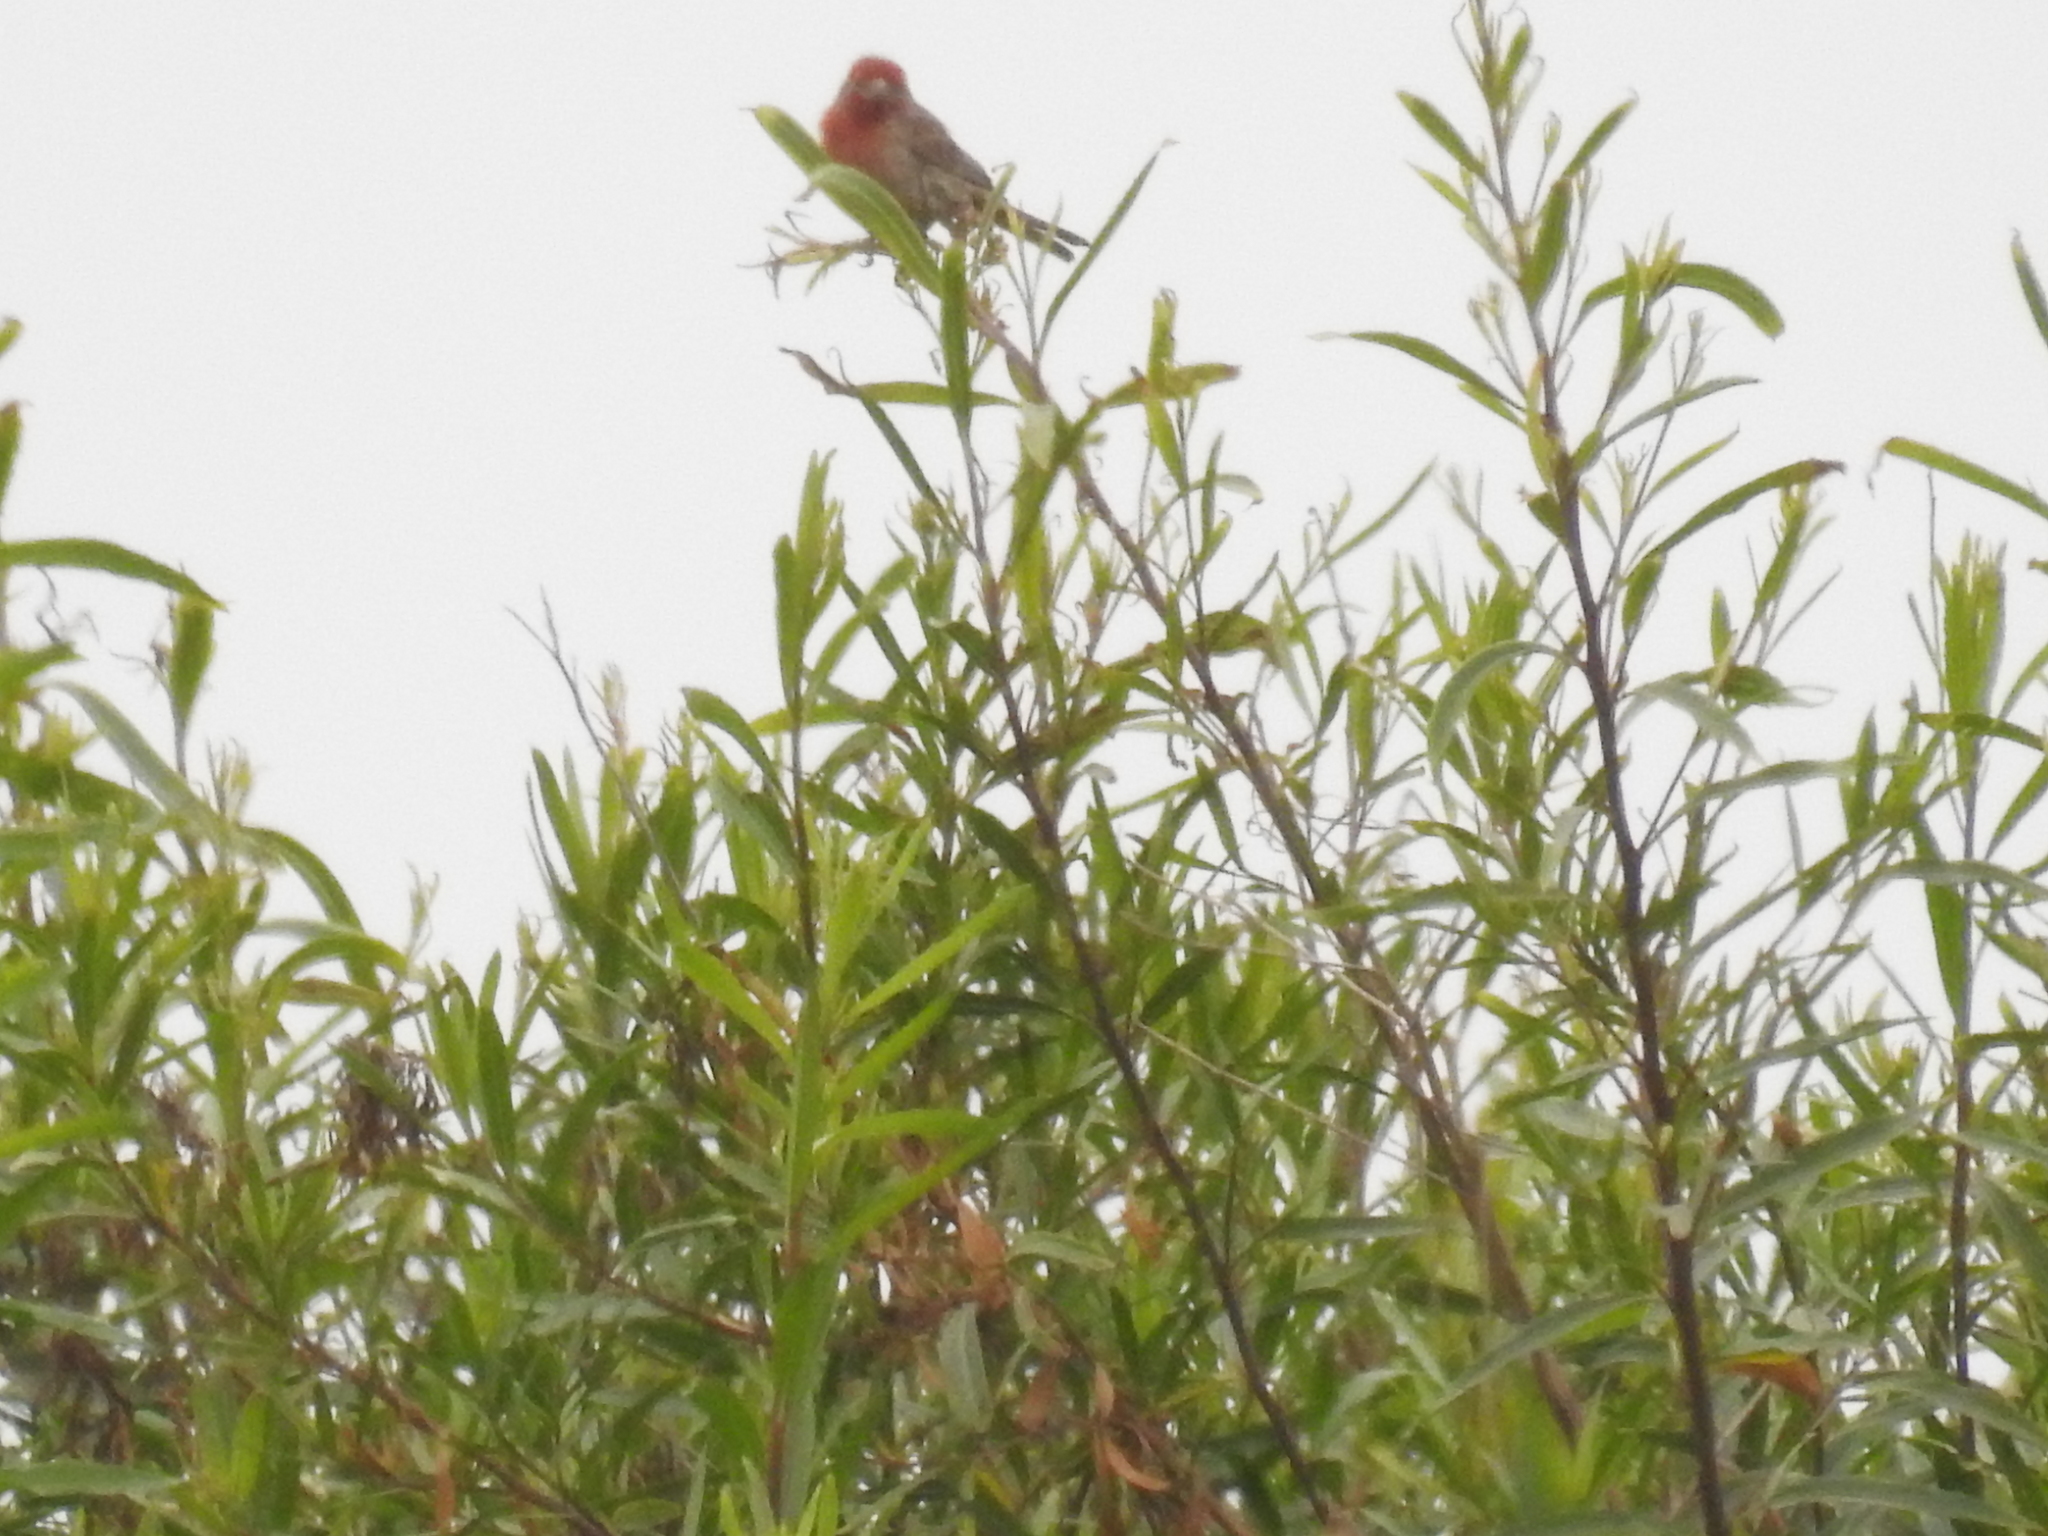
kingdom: Animalia
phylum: Chordata
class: Aves
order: Passeriformes
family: Fringillidae
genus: Haemorhous
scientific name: Haemorhous mexicanus
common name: House finch
